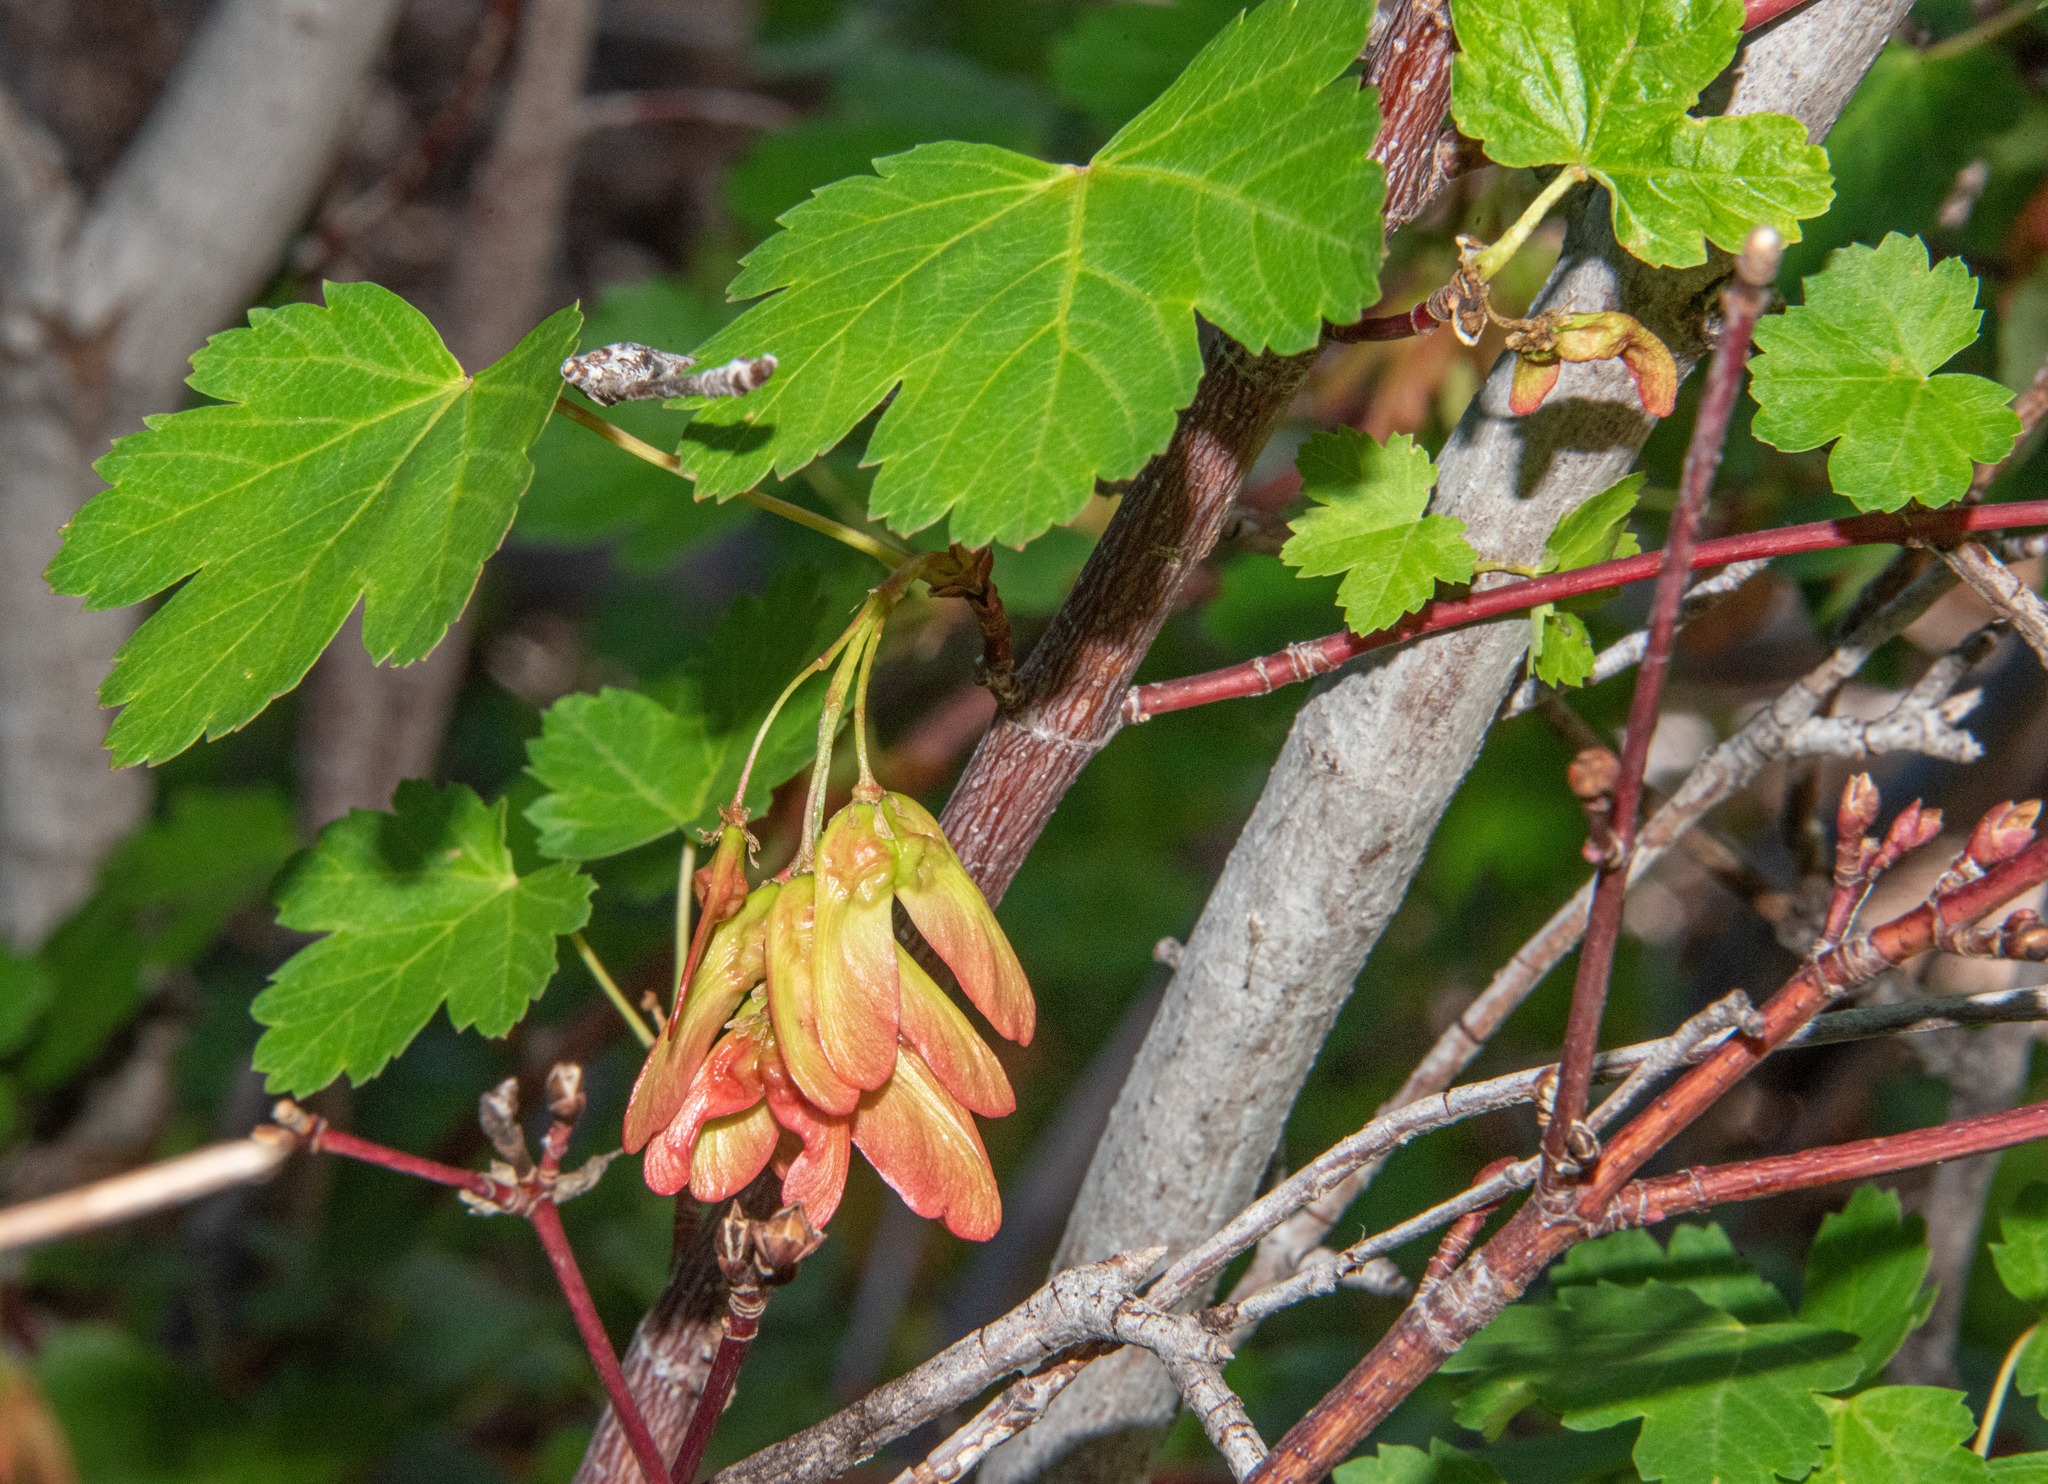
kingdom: Plantae
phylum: Tracheophyta
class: Magnoliopsida
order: Sapindales
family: Sapindaceae
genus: Acer
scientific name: Acer glabrum
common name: Rocky mountain maple
